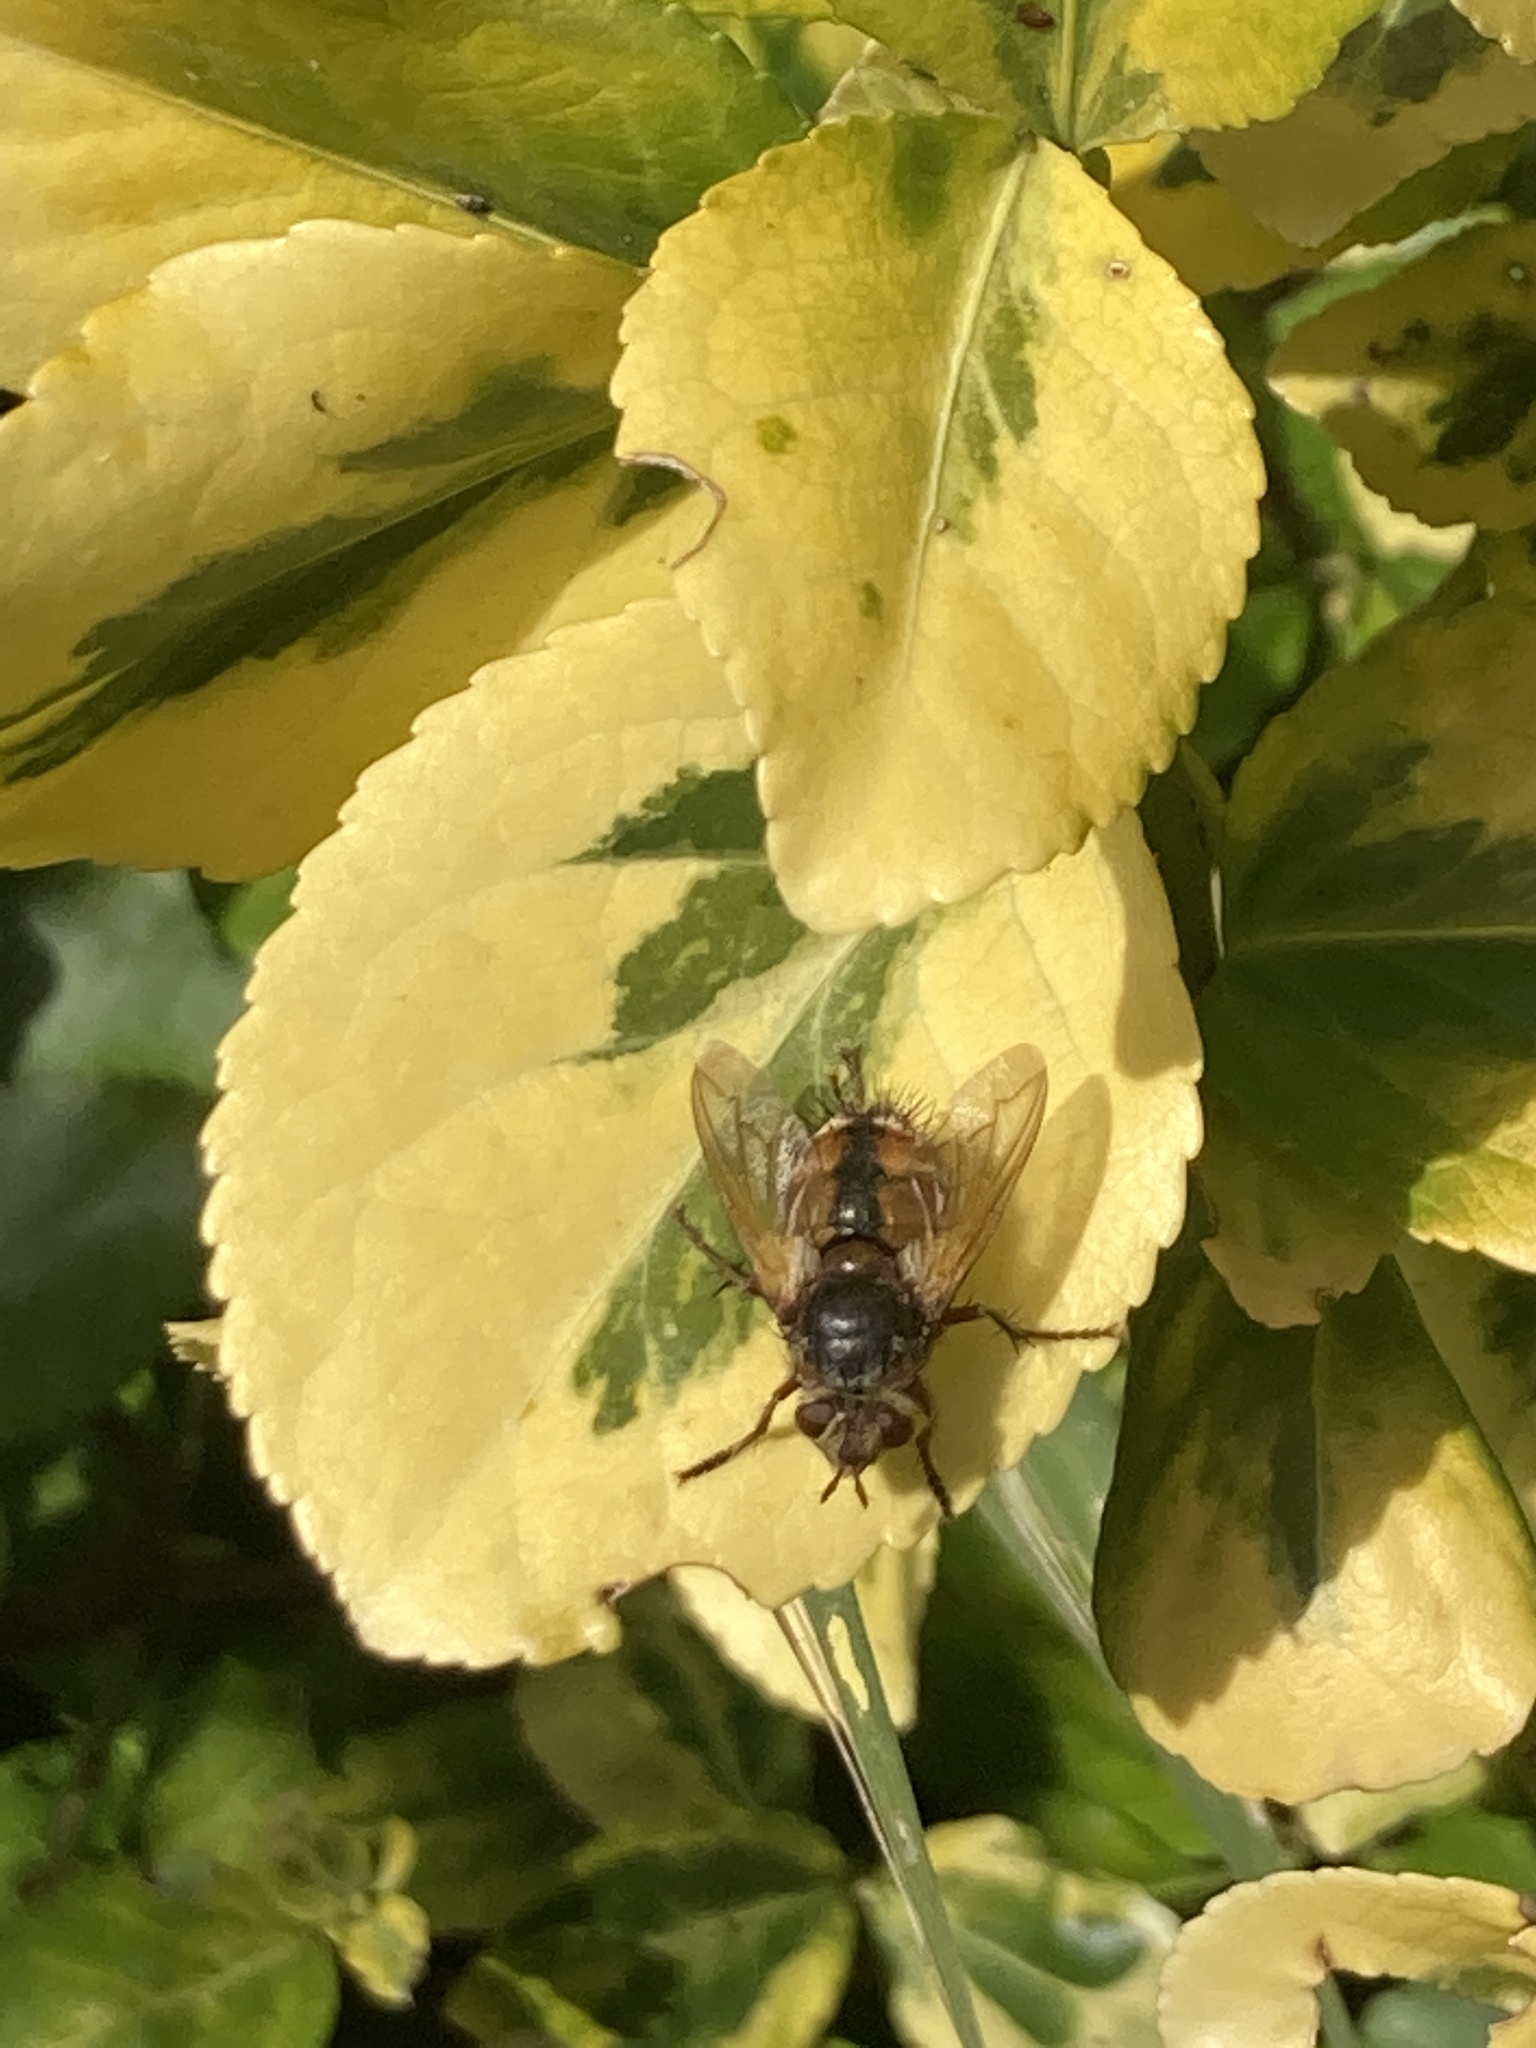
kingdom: Animalia
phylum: Arthropoda
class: Insecta
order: Diptera
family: Tachinidae
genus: Tachina
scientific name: Tachina fera
